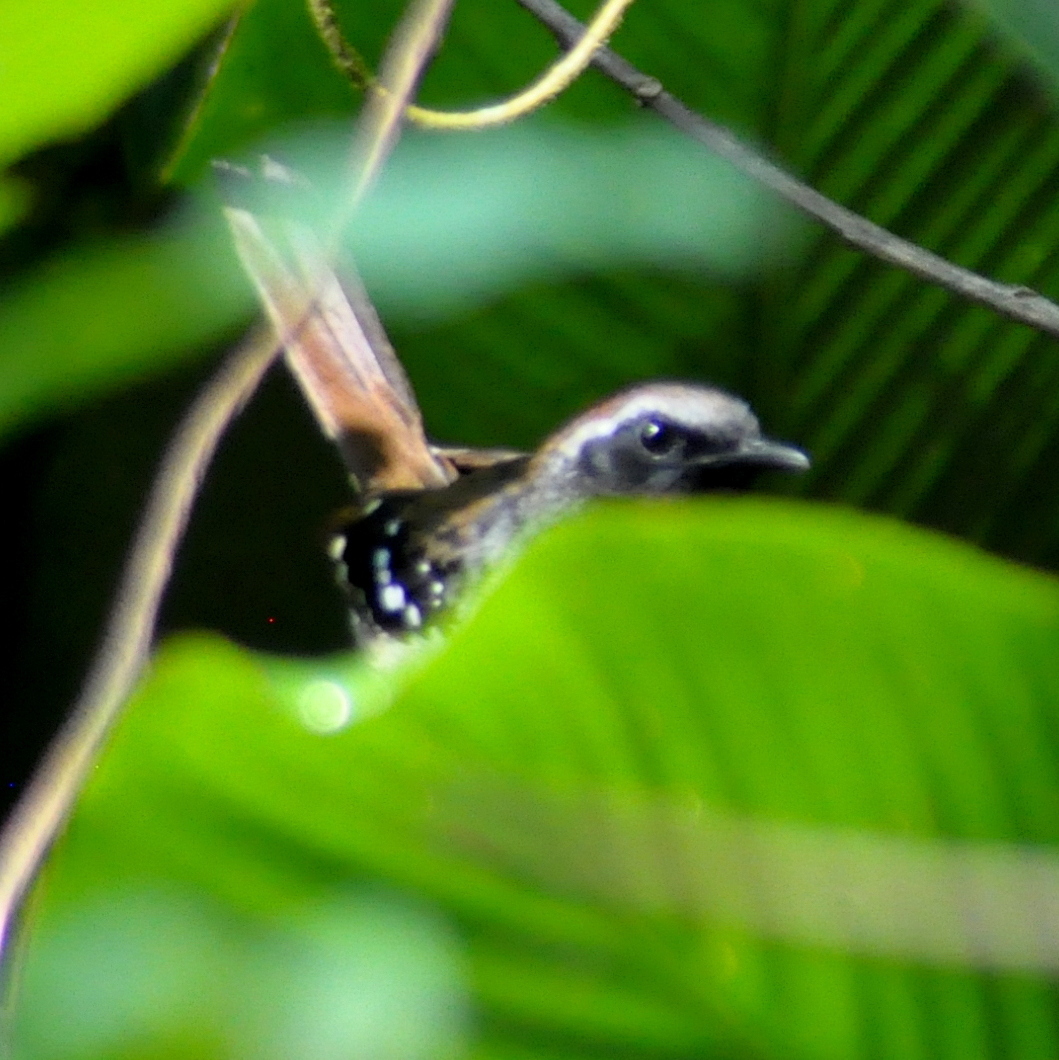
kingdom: Animalia
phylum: Chordata
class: Aves
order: Passeriformes
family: Thamnophilidae
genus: Myrmeciza
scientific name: Myrmeciza squamosa
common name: Squamate antbird
